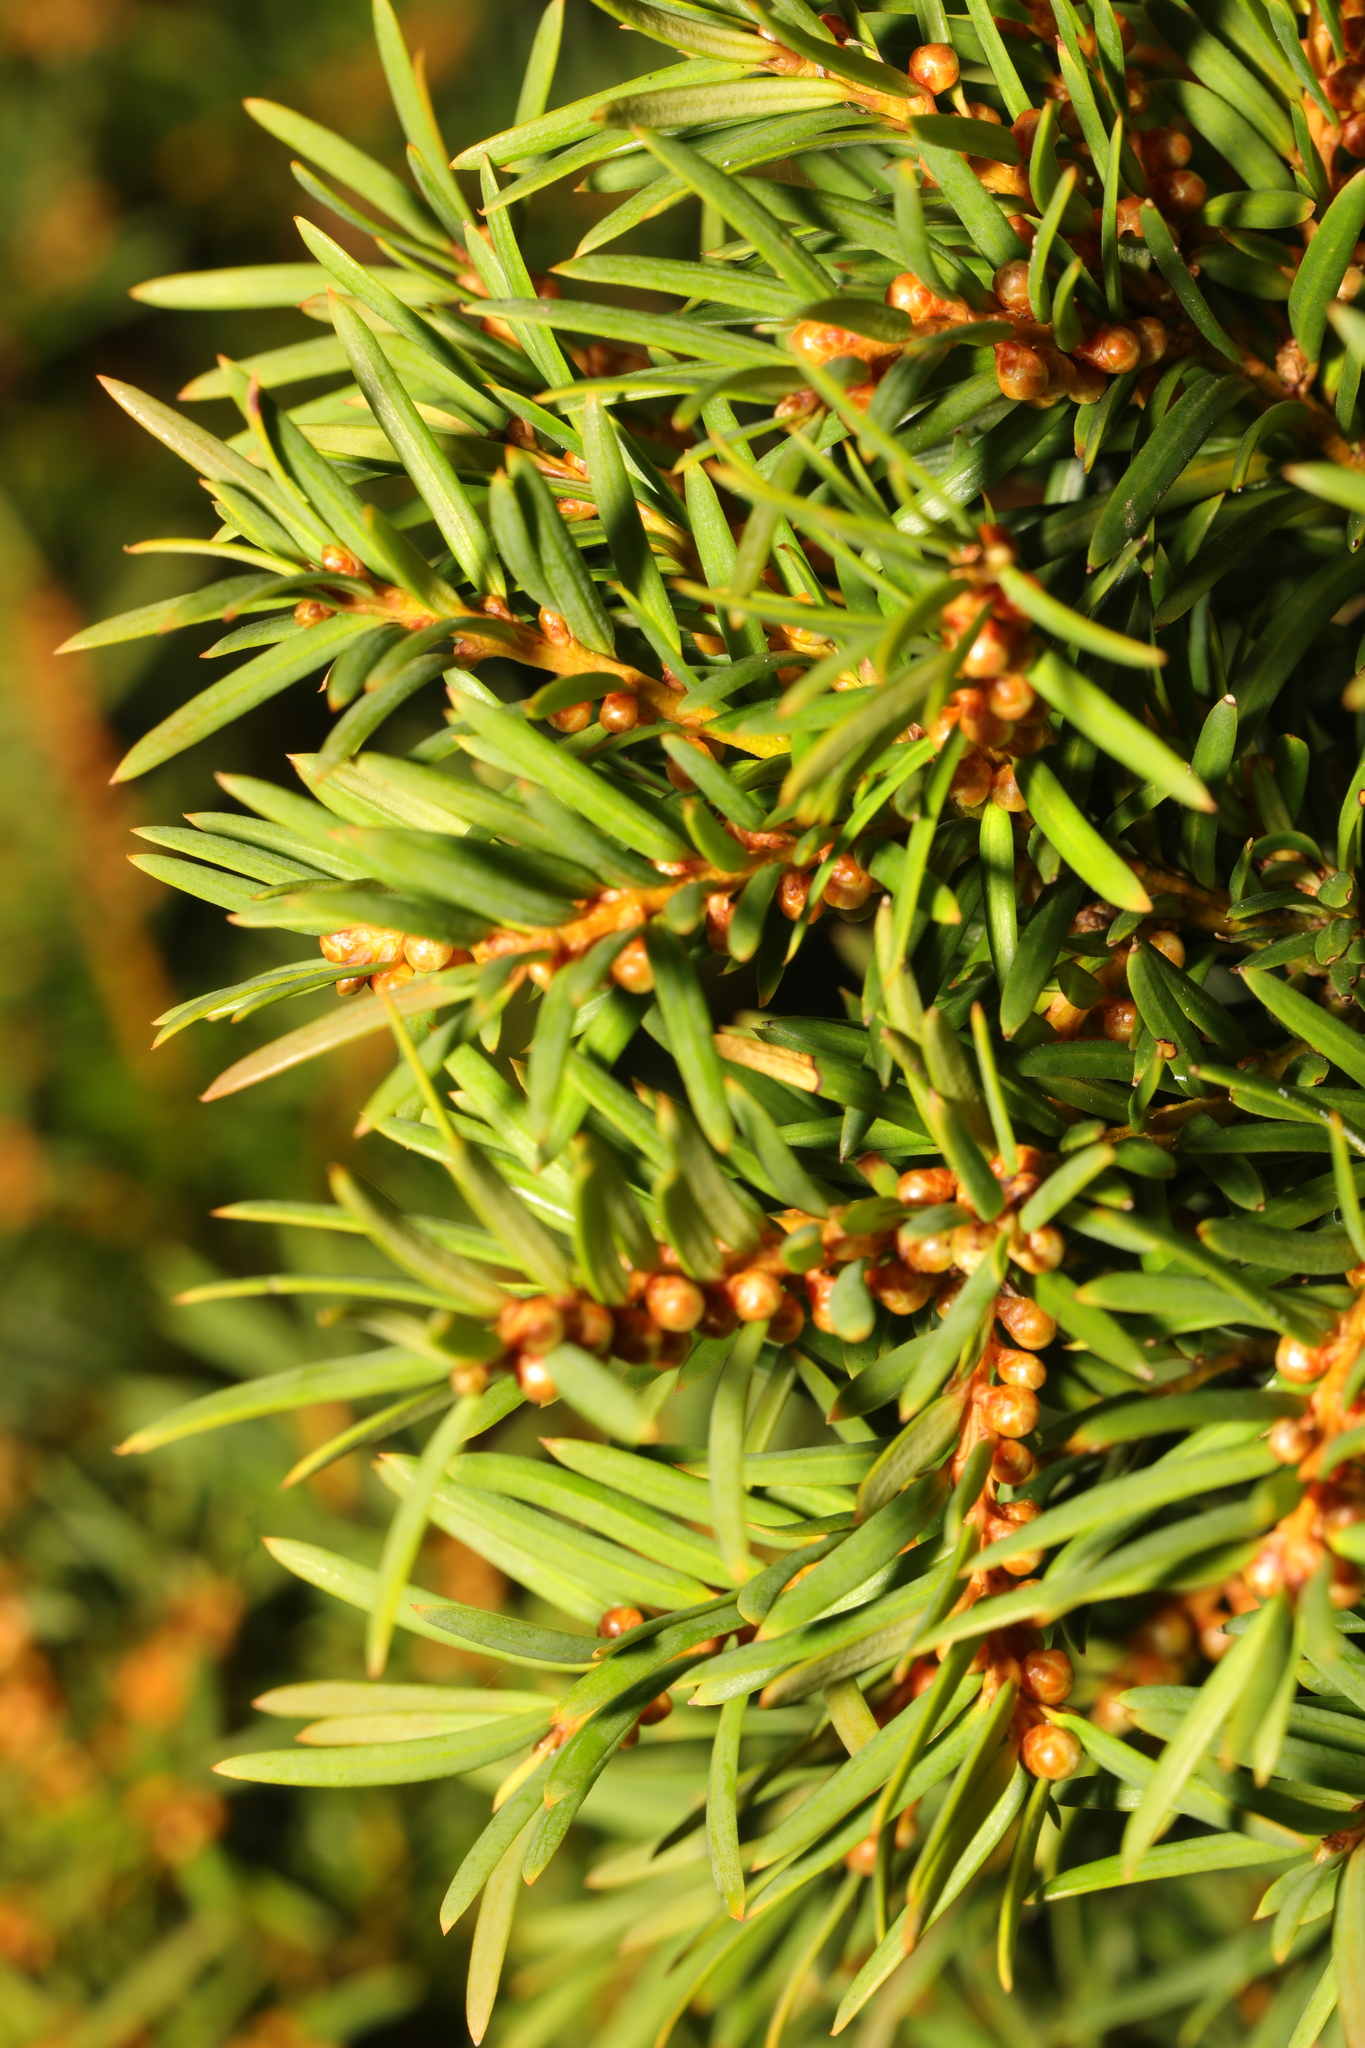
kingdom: Plantae
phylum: Tracheophyta
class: Pinopsida
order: Pinales
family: Taxaceae
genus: Taxus
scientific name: Taxus baccata
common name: Yew
